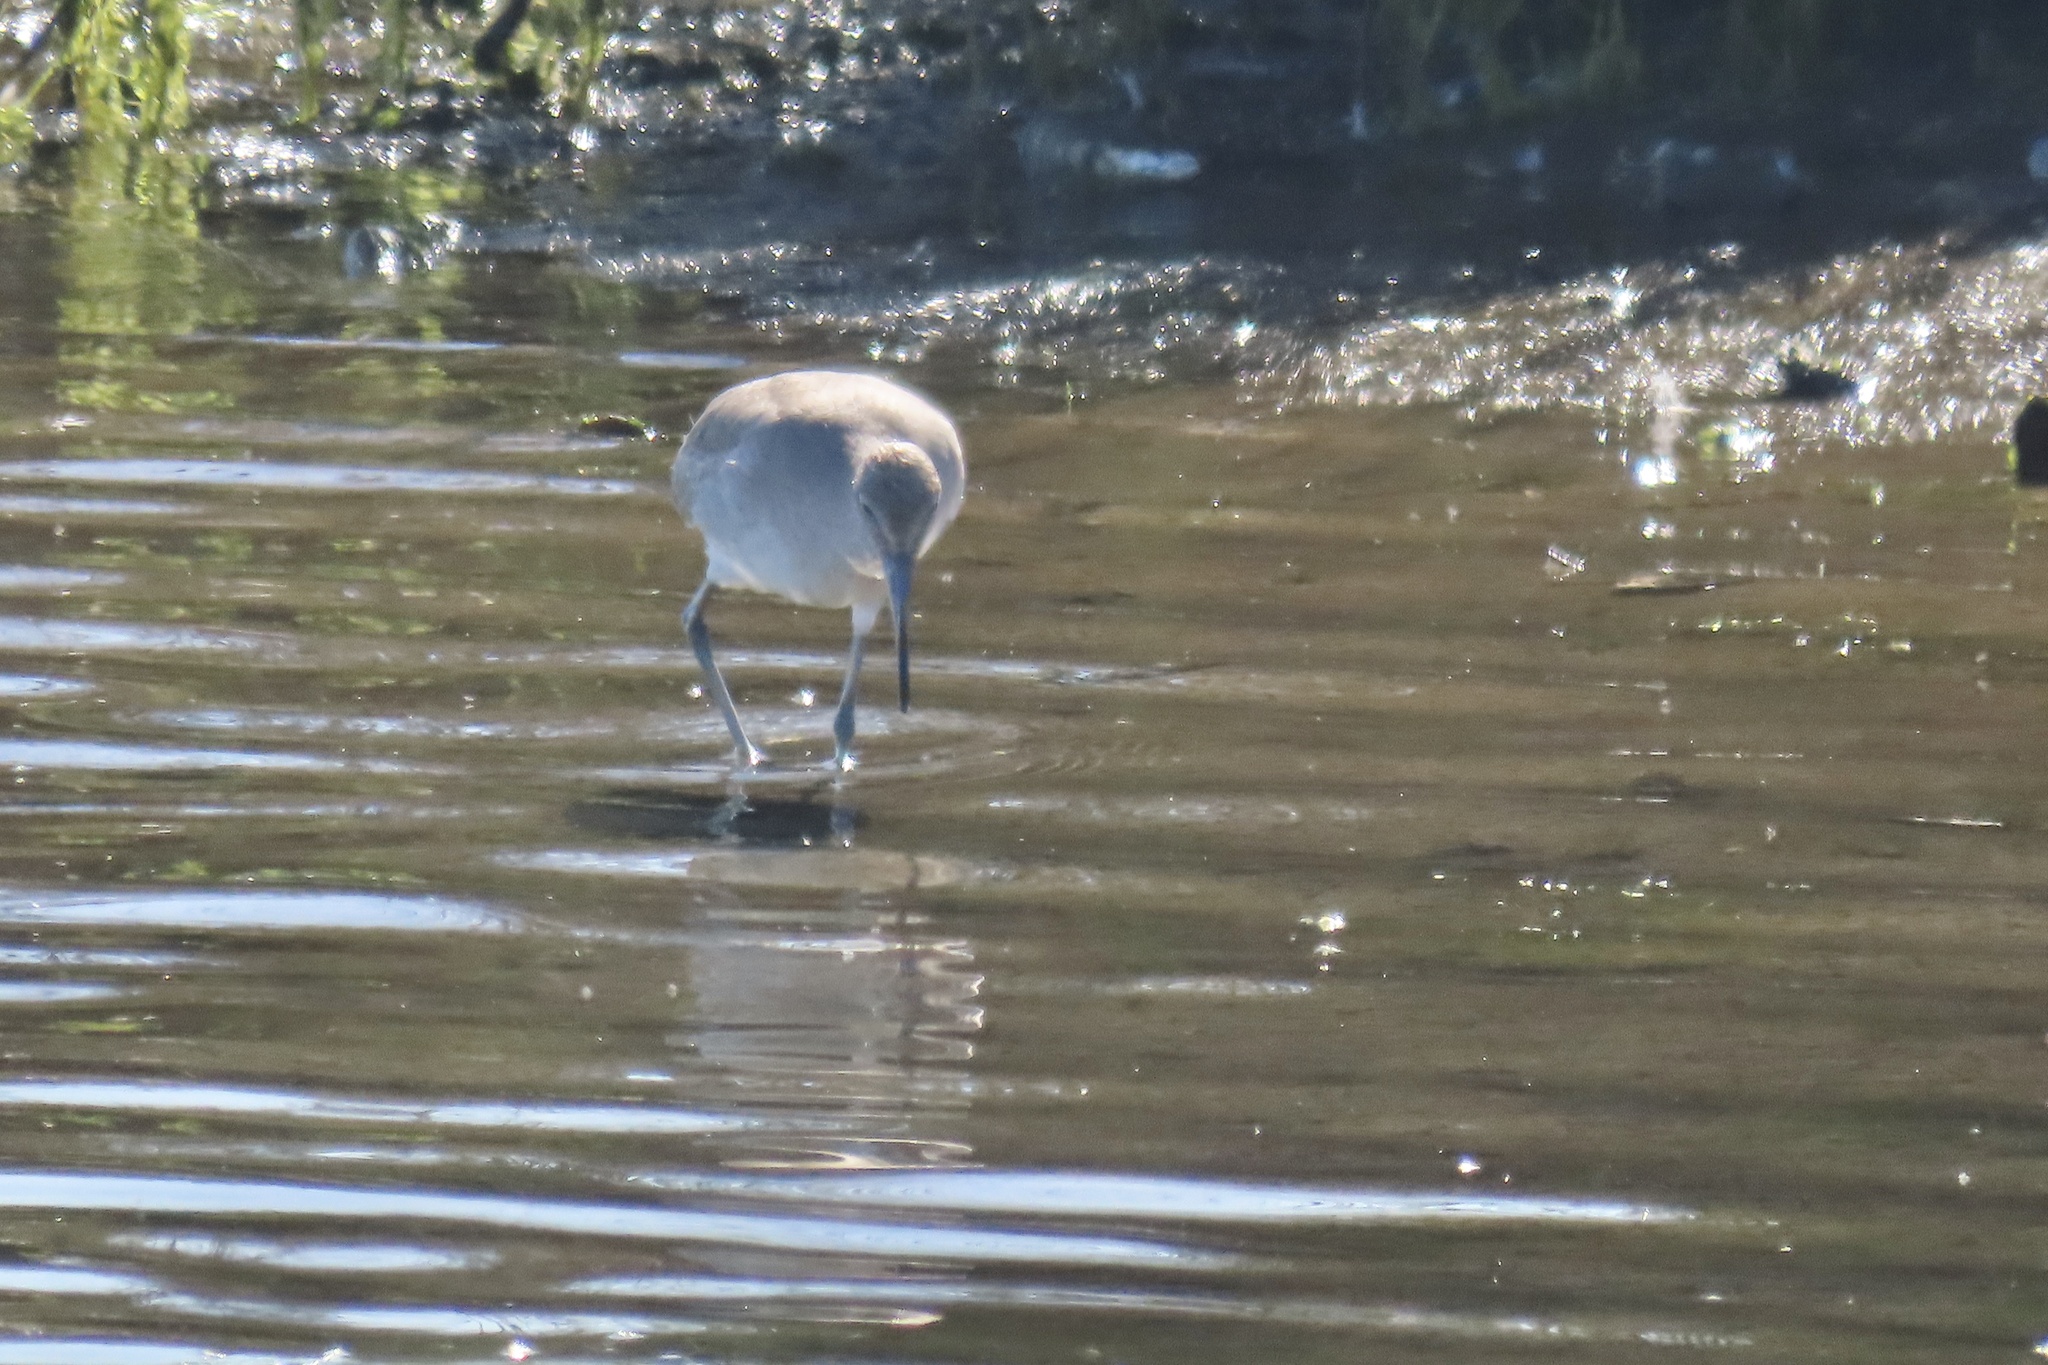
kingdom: Animalia
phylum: Chordata
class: Aves
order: Charadriiformes
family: Scolopacidae
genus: Tringa
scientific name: Tringa semipalmata
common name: Willet
